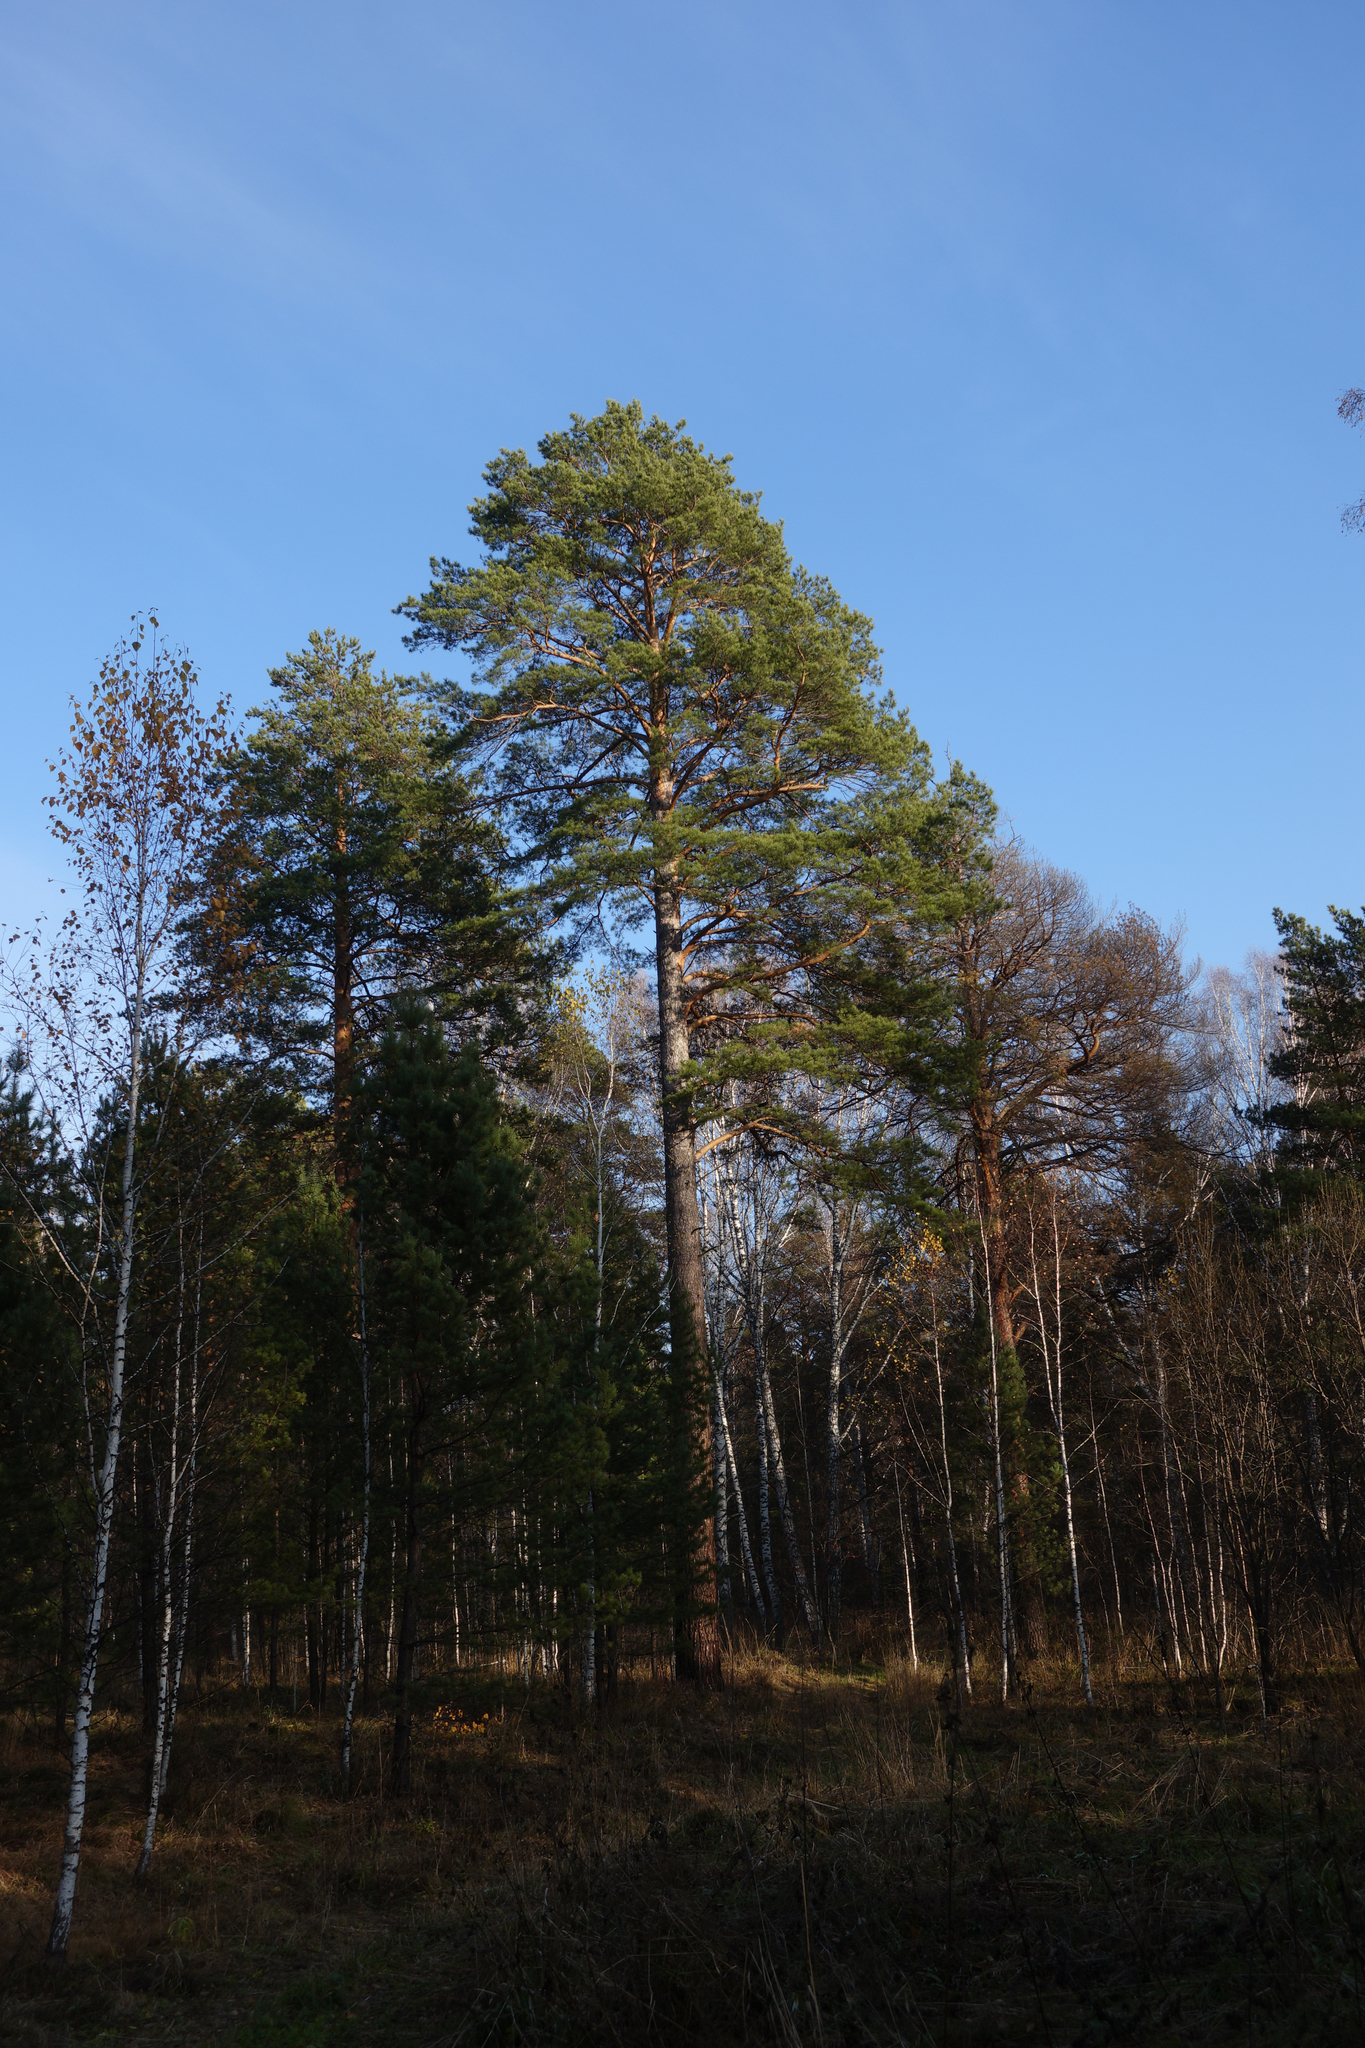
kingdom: Plantae
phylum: Tracheophyta
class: Pinopsida
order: Pinales
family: Pinaceae
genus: Pinus
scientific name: Pinus sylvestris
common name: Scots pine
